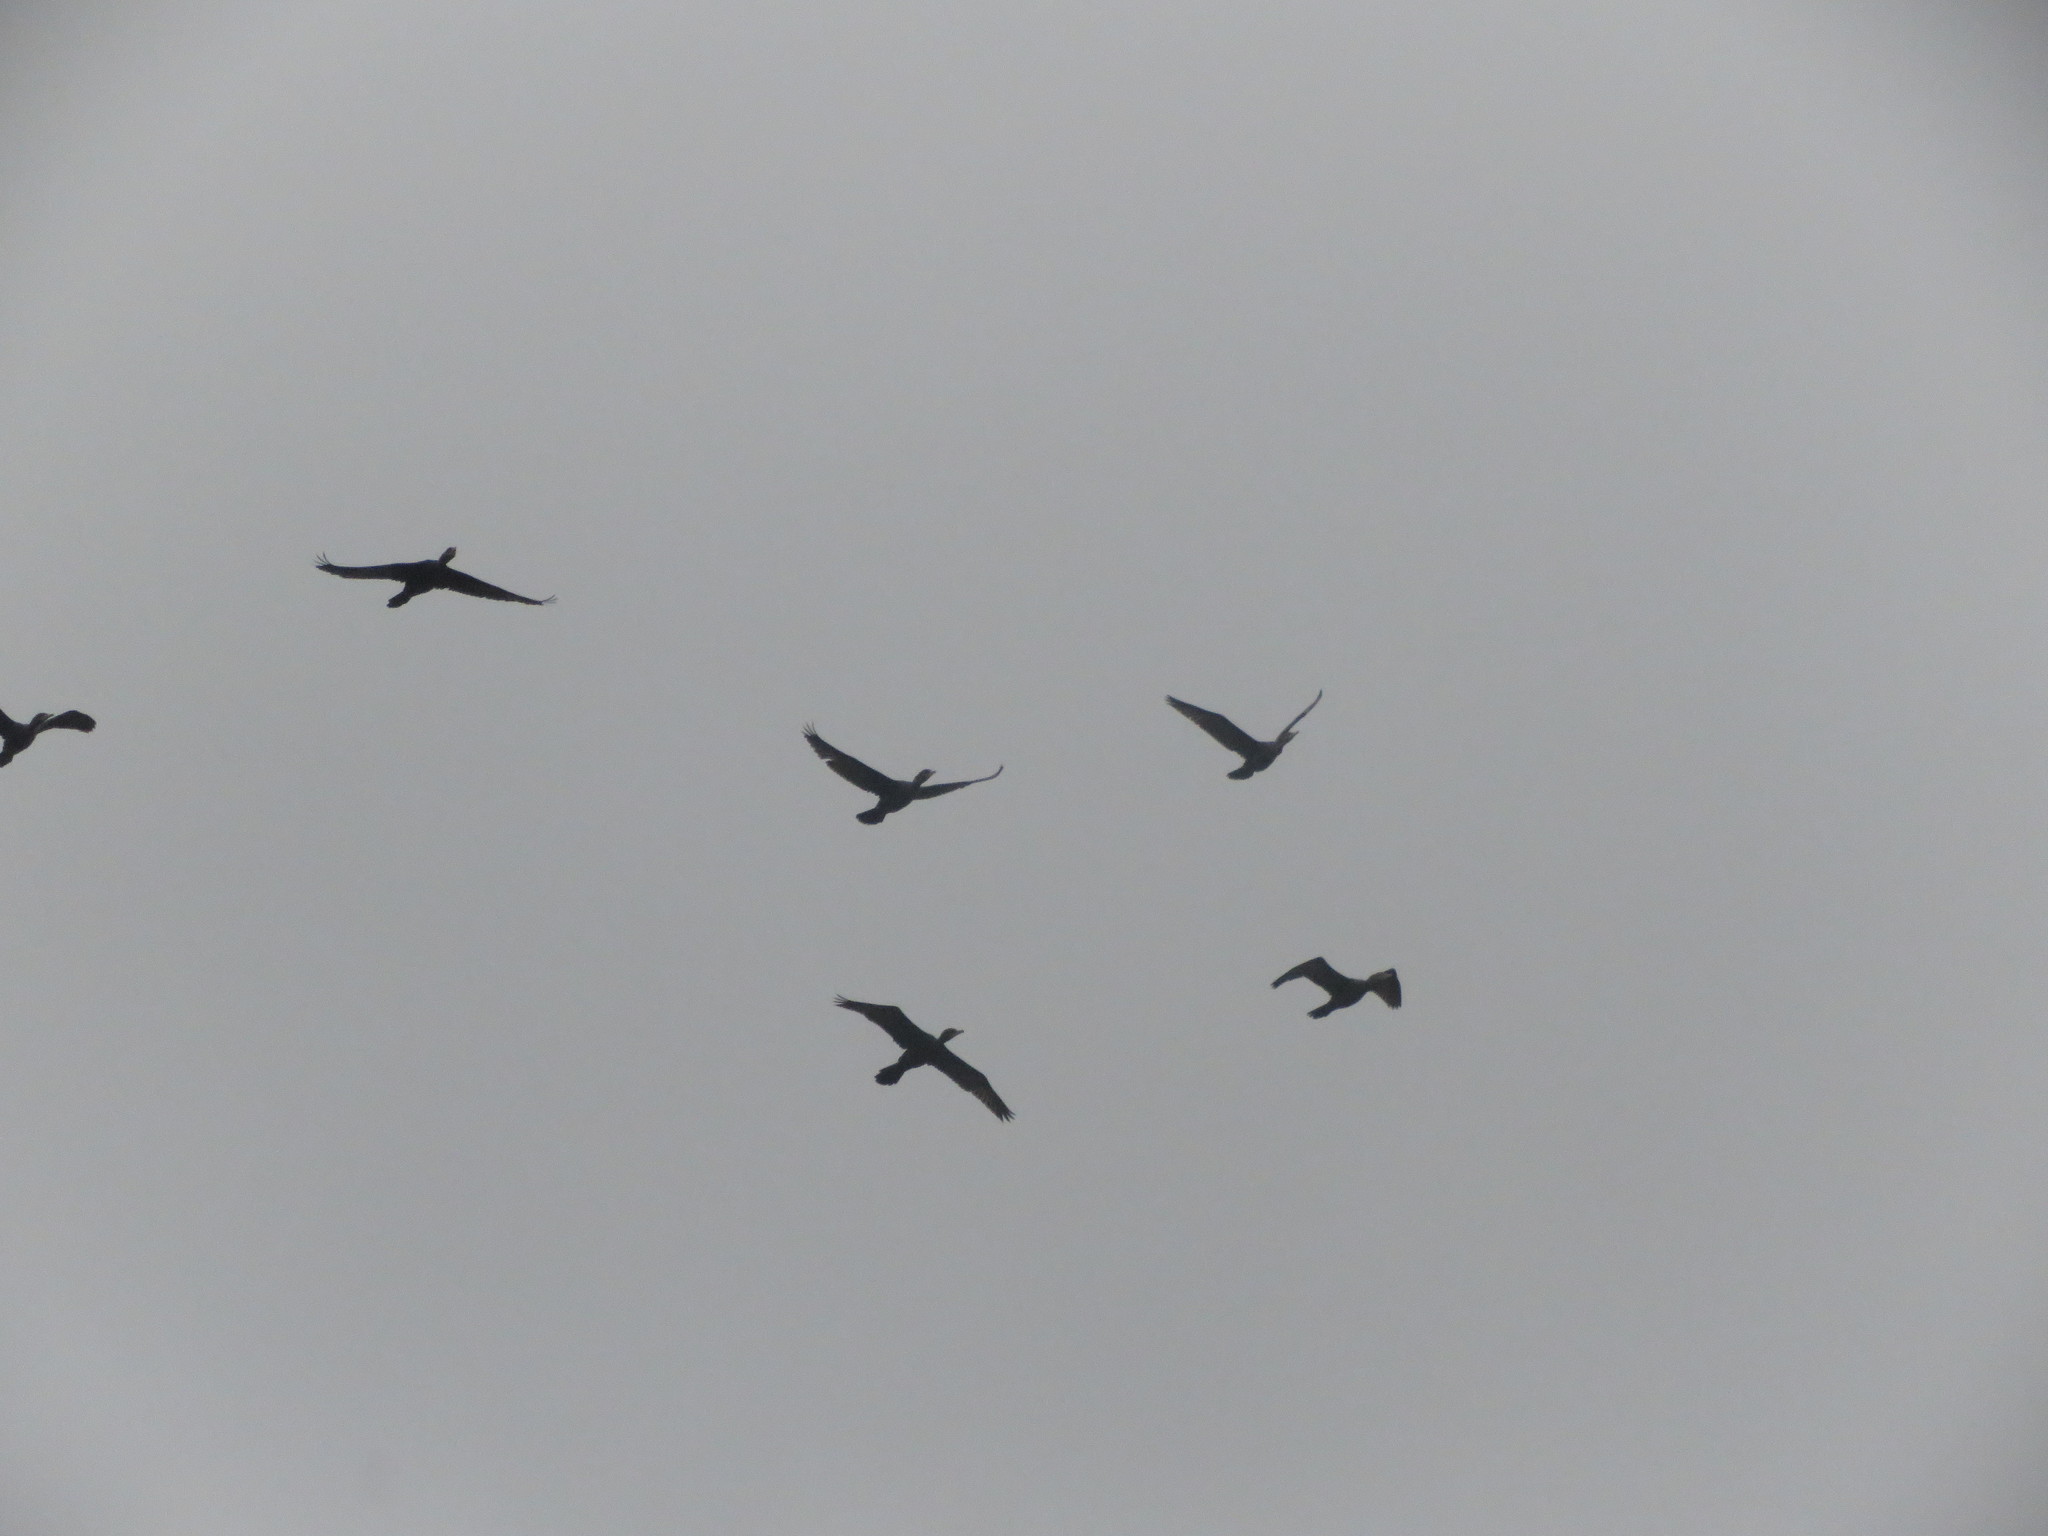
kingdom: Animalia
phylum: Chordata
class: Aves
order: Suliformes
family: Phalacrocoracidae
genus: Phalacrocorax
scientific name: Phalacrocorax brasilianus
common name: Neotropic cormorant
